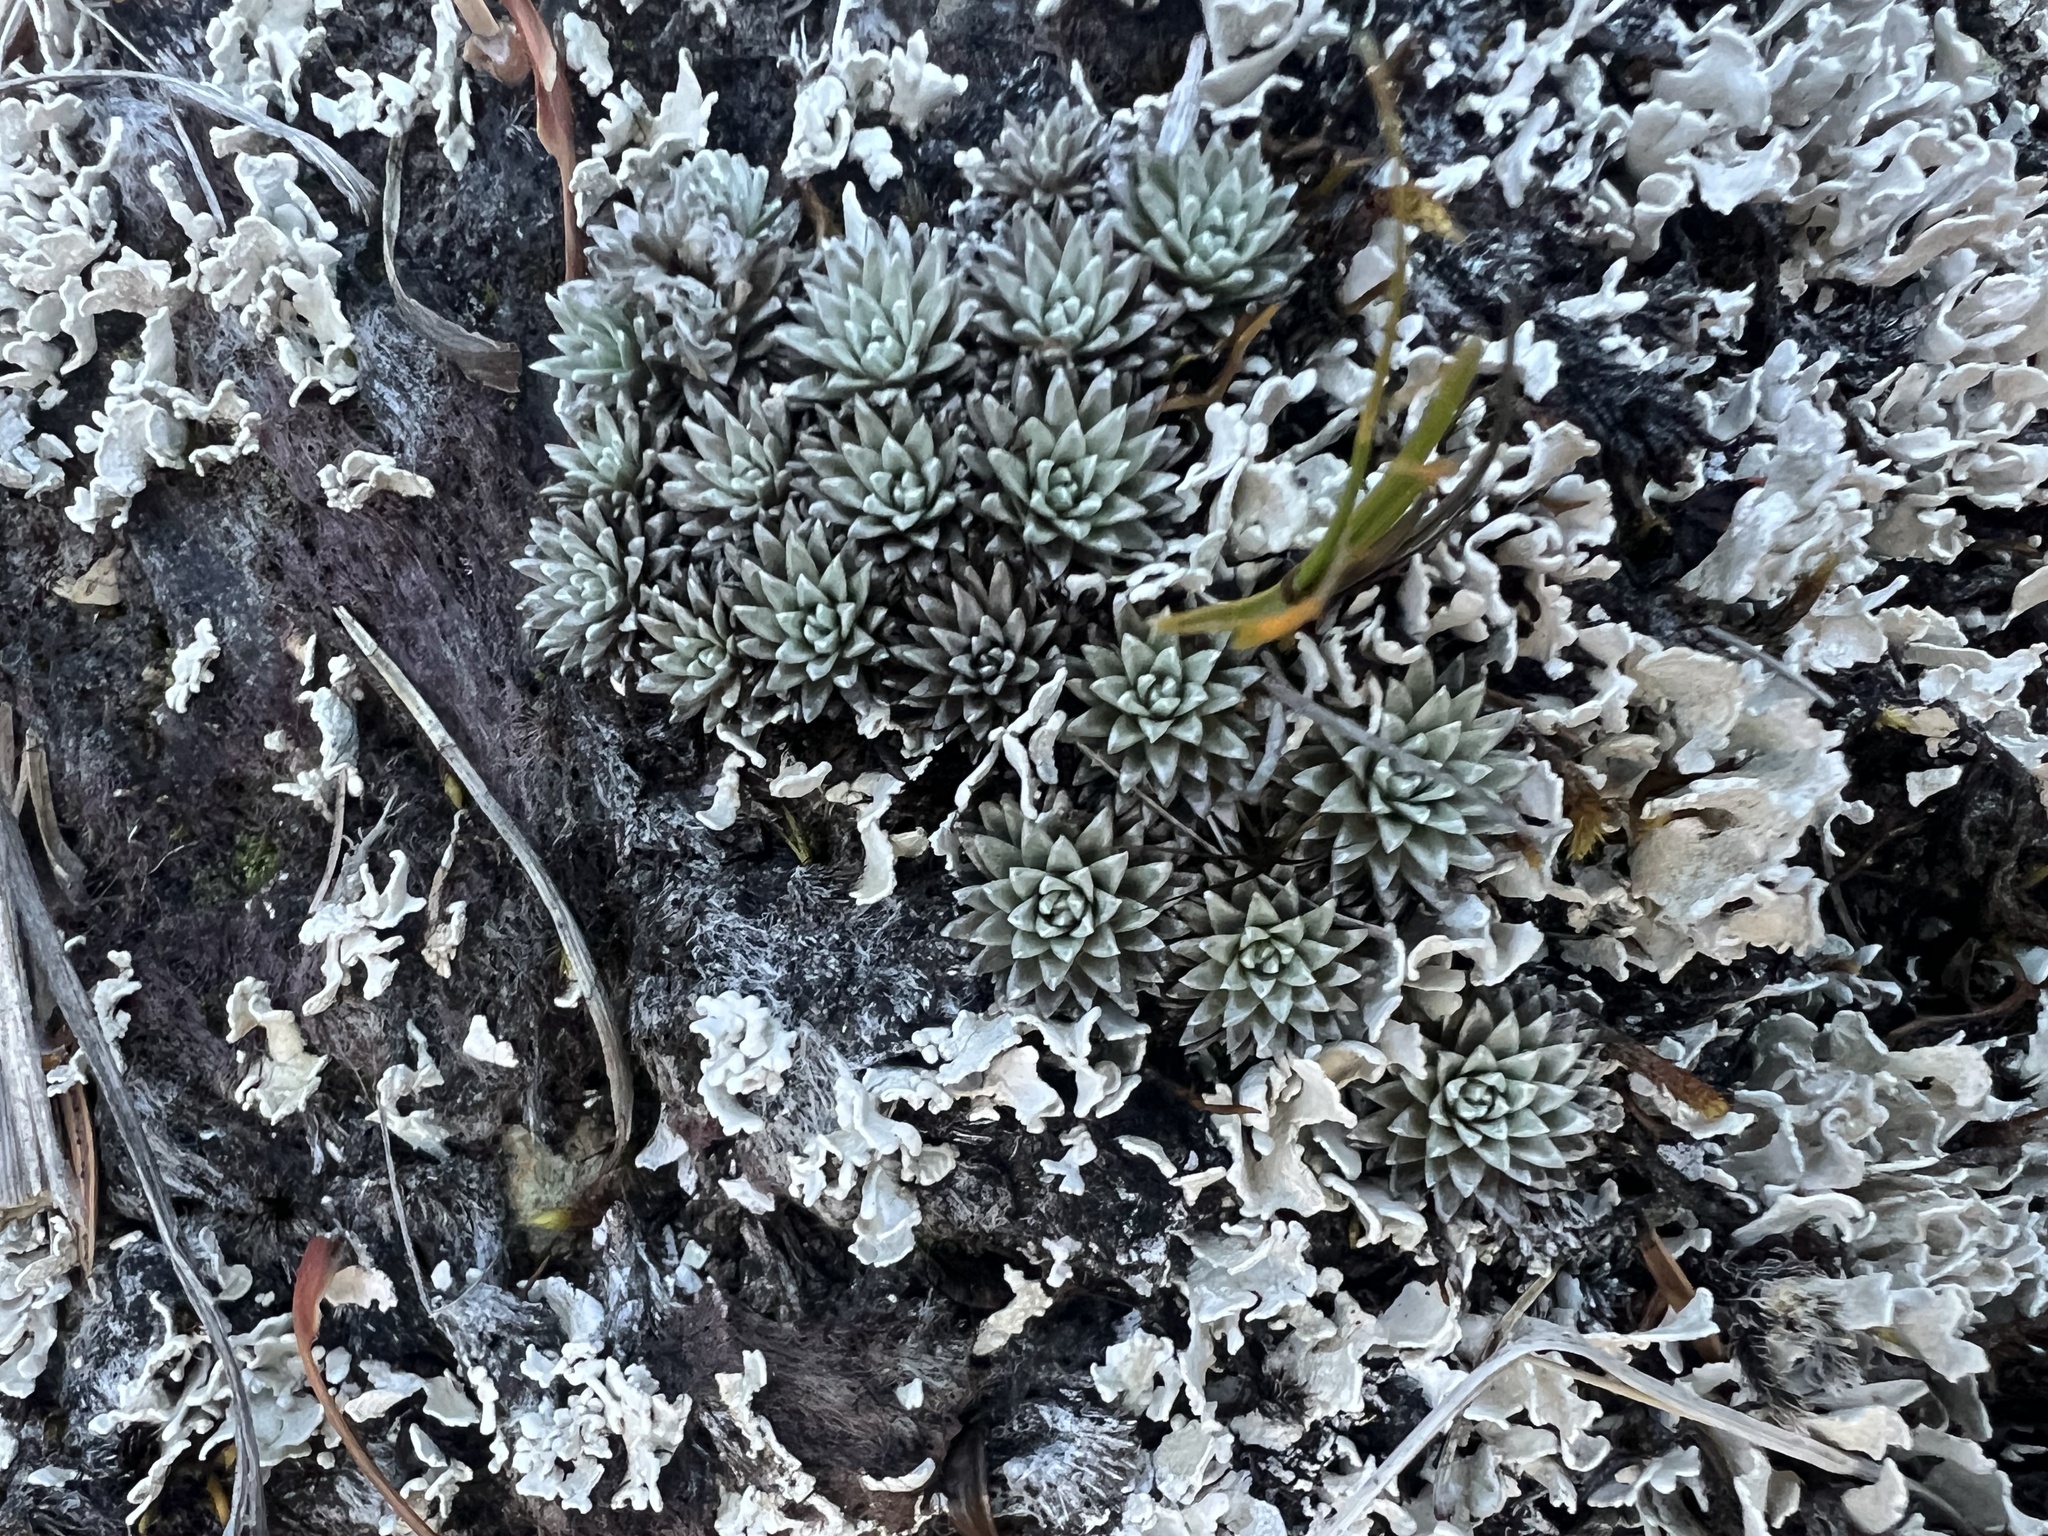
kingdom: Plantae
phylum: Tracheophyta
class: Magnoliopsida
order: Asterales
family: Asteraceae
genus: Raoulia
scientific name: Raoulia grandiflora
